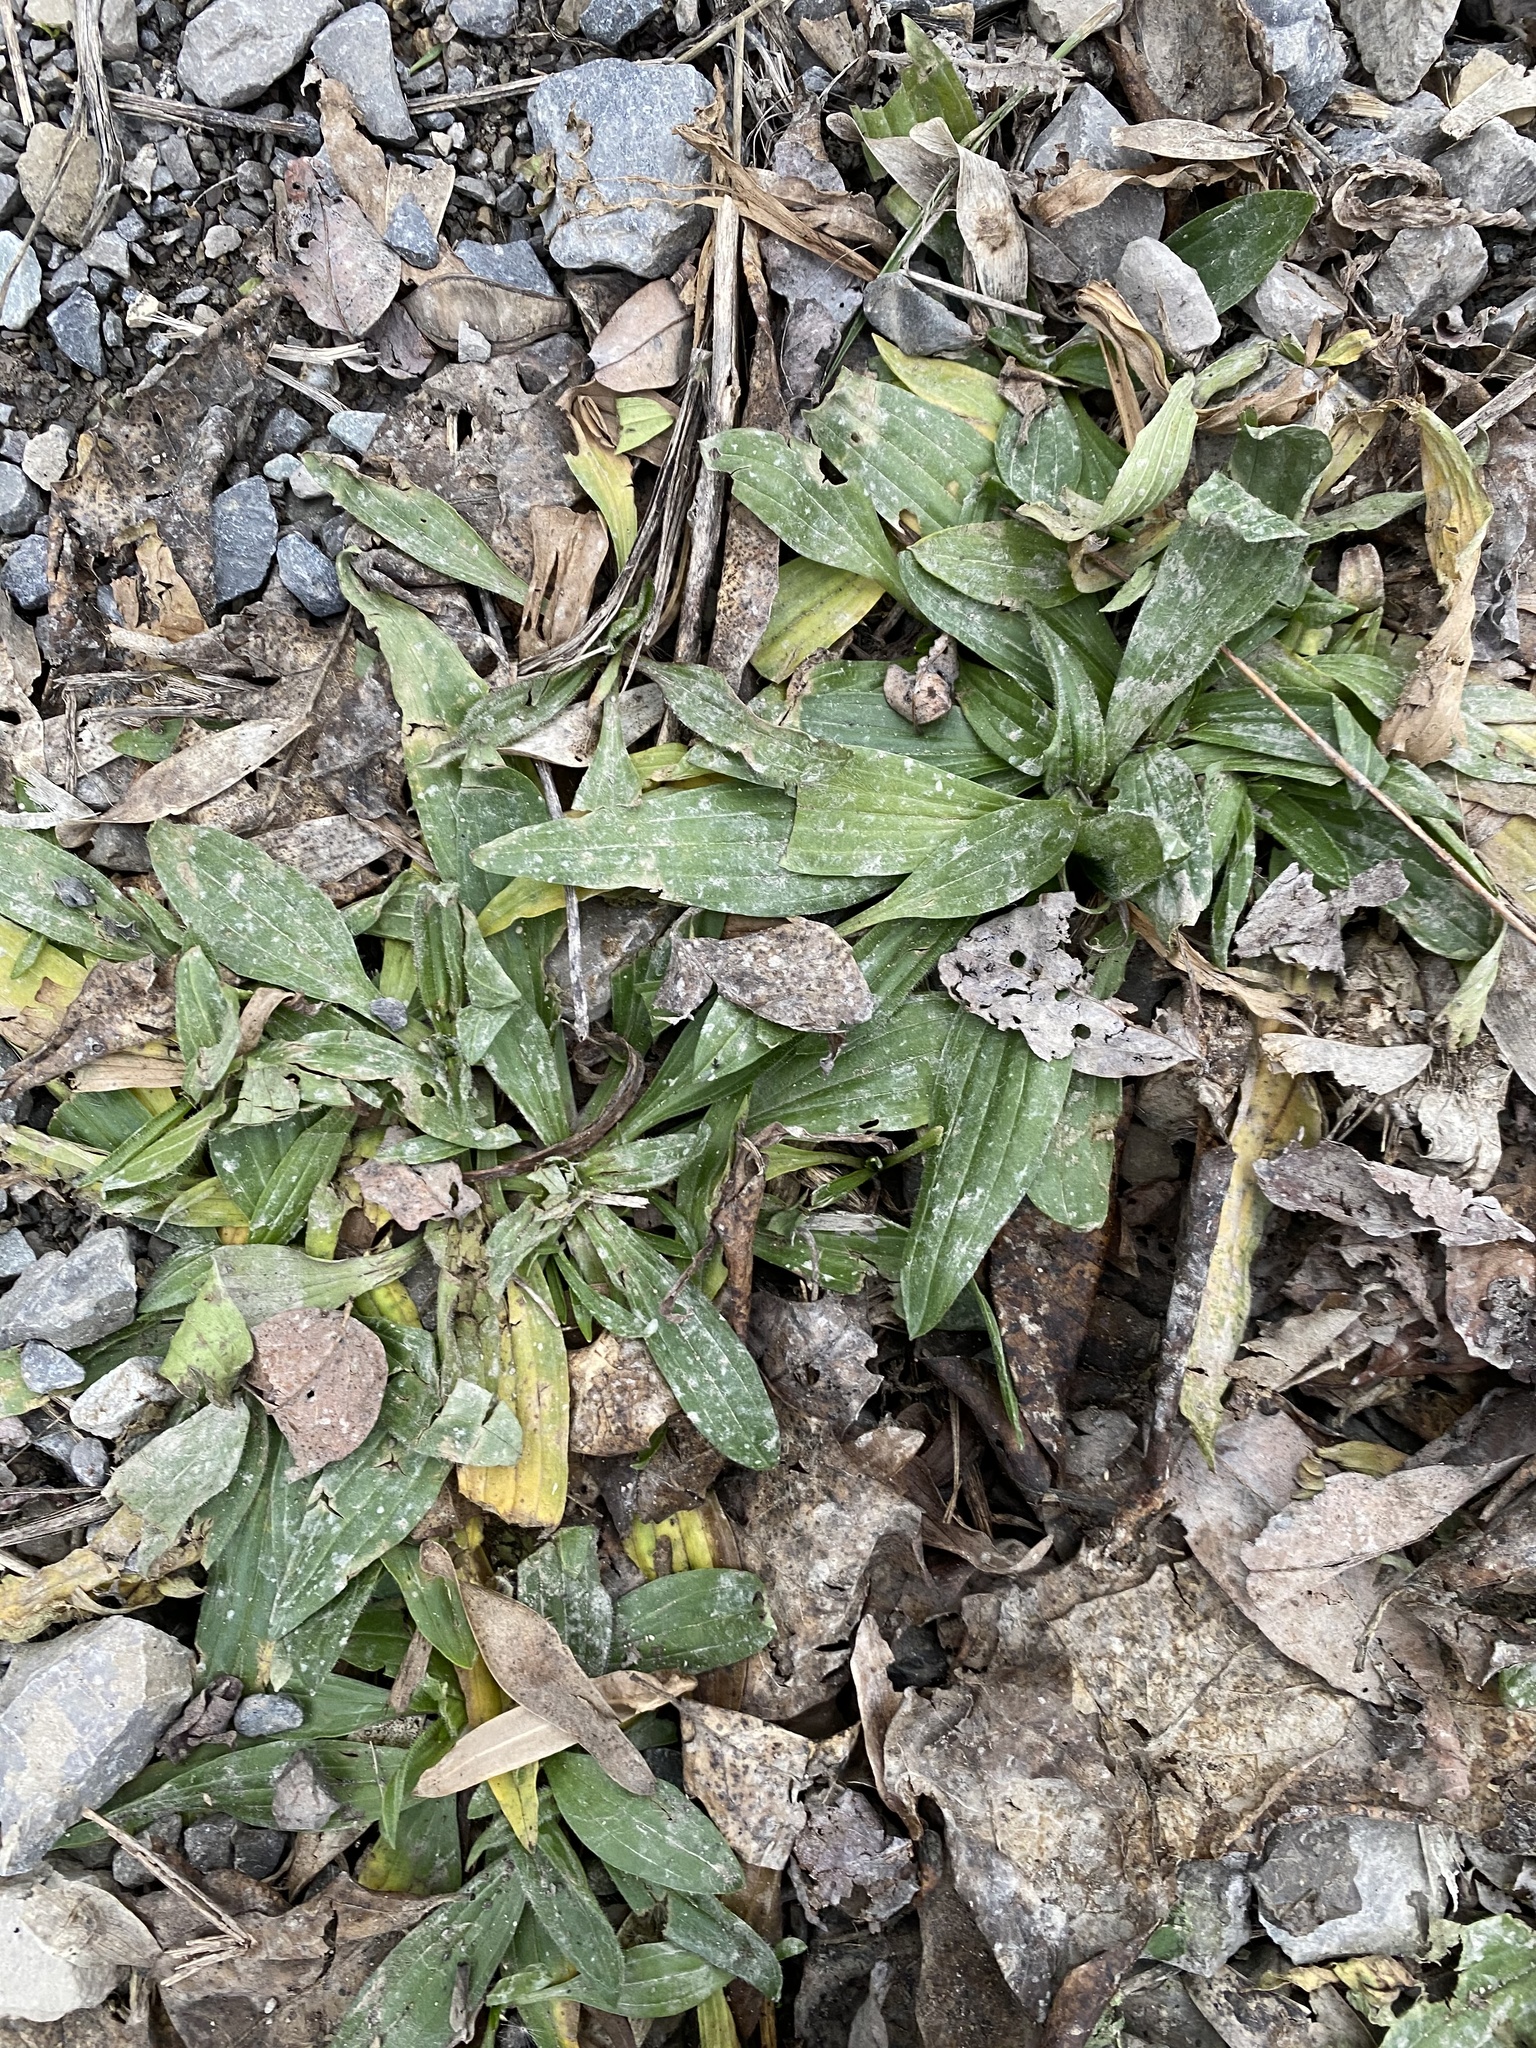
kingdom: Plantae
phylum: Tracheophyta
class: Magnoliopsida
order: Lamiales
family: Plantaginaceae
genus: Plantago
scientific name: Plantago lanceolata
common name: Ribwort plantain
